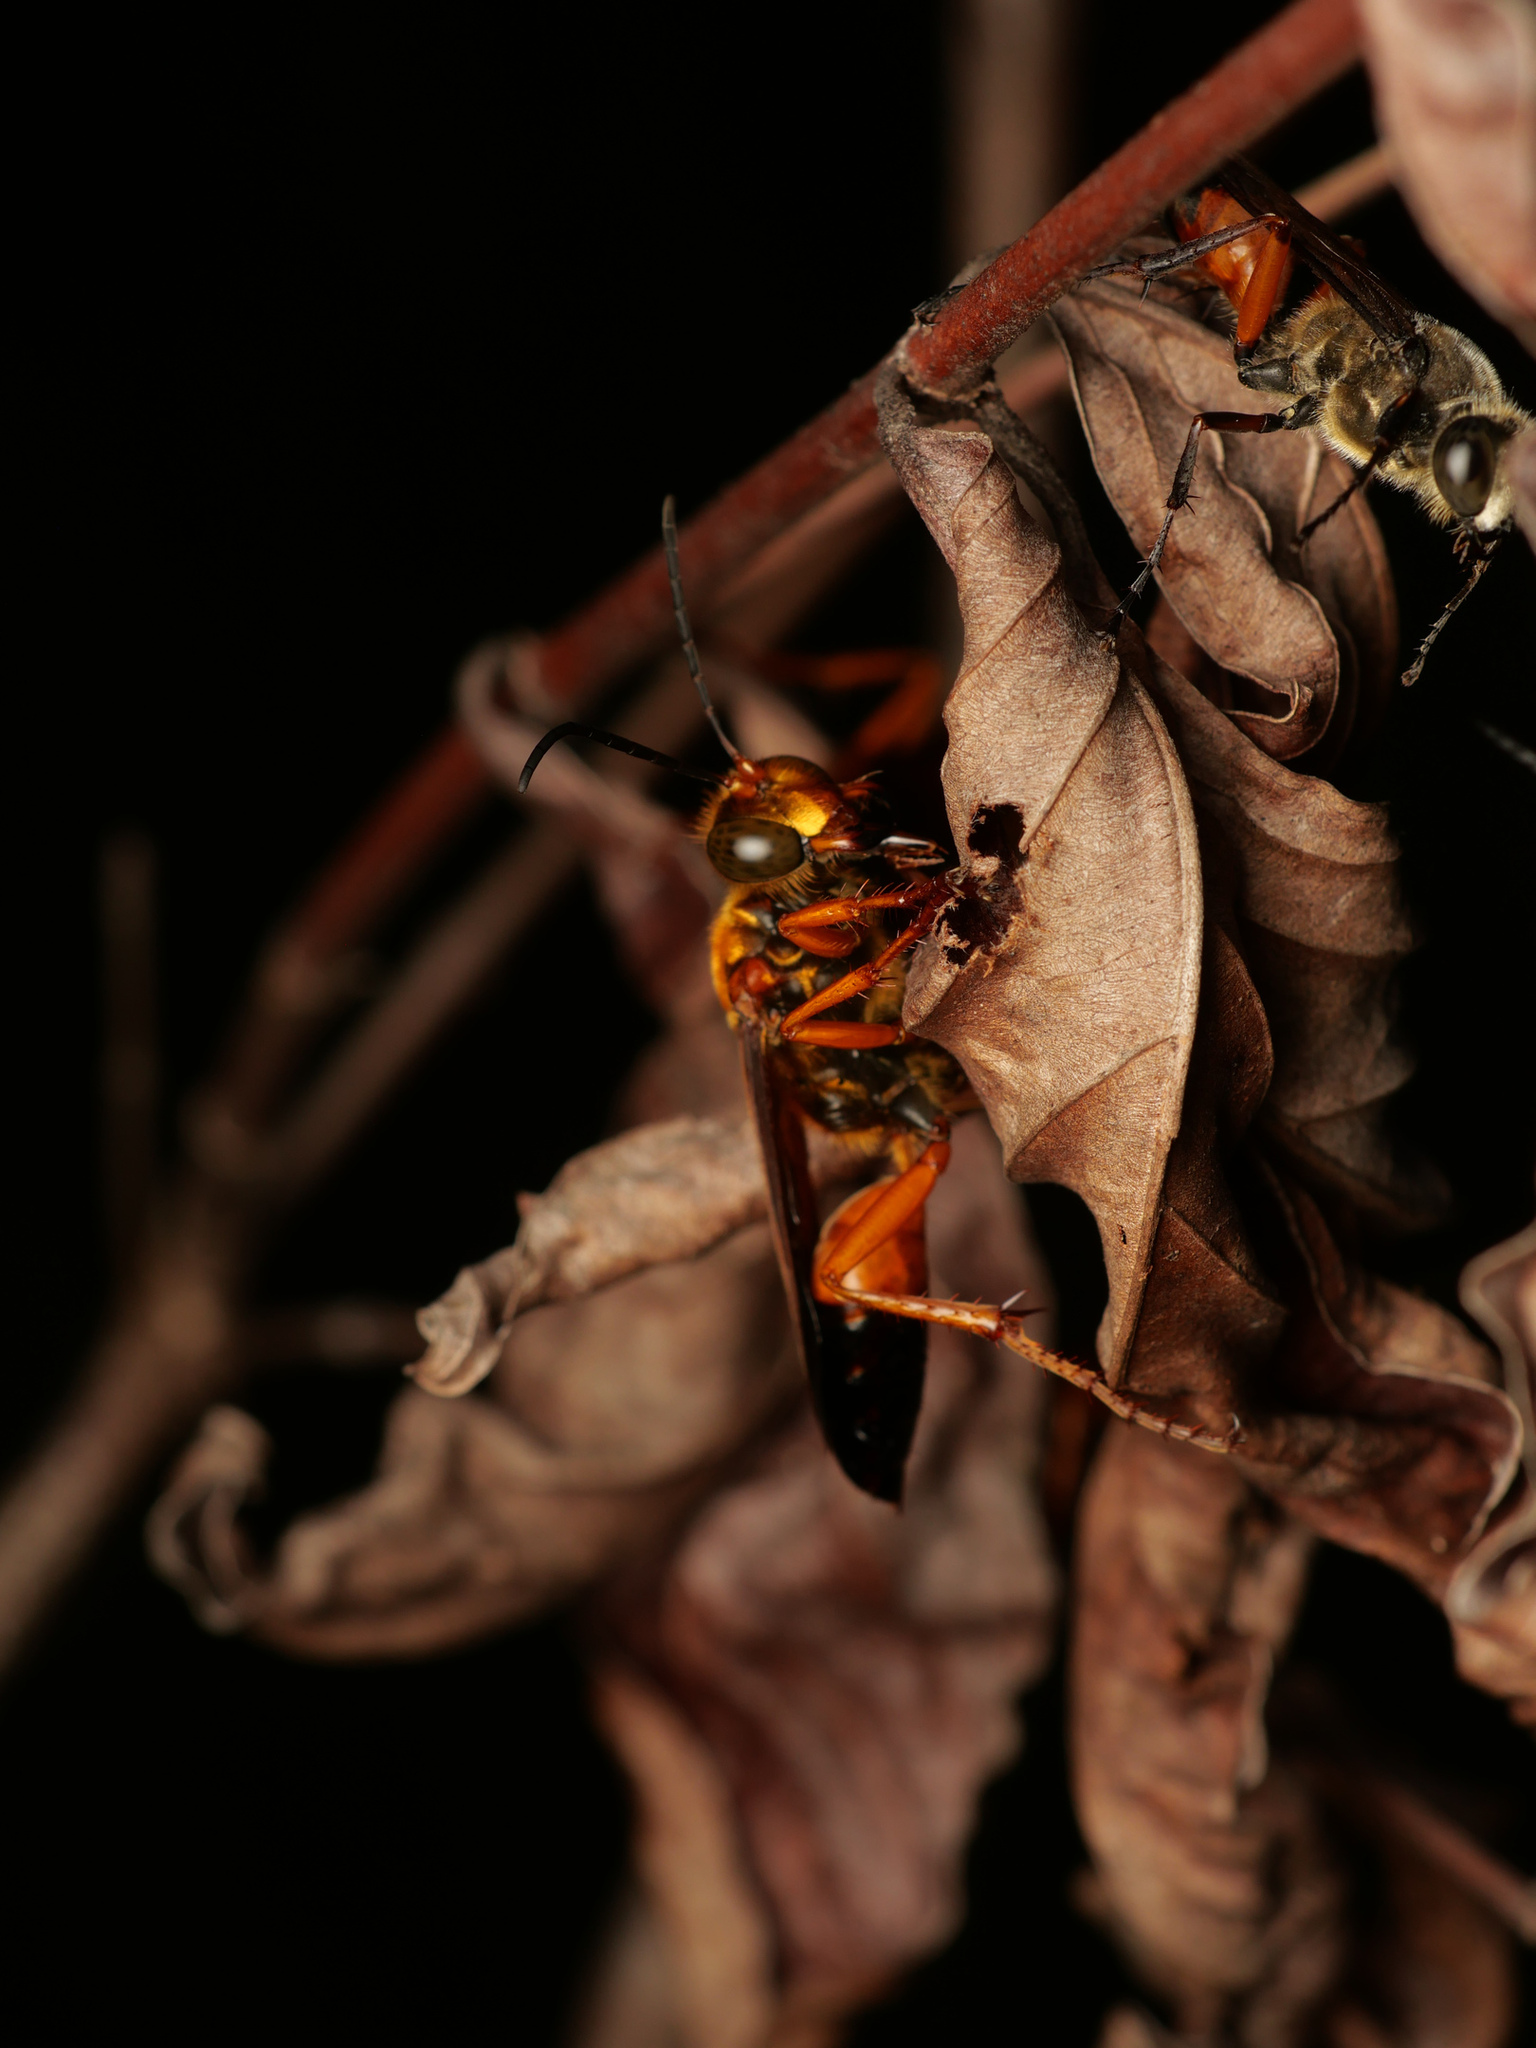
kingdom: Animalia
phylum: Arthropoda
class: Insecta
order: Hymenoptera
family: Sphecidae
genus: Sphex
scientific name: Sphex sericeus
